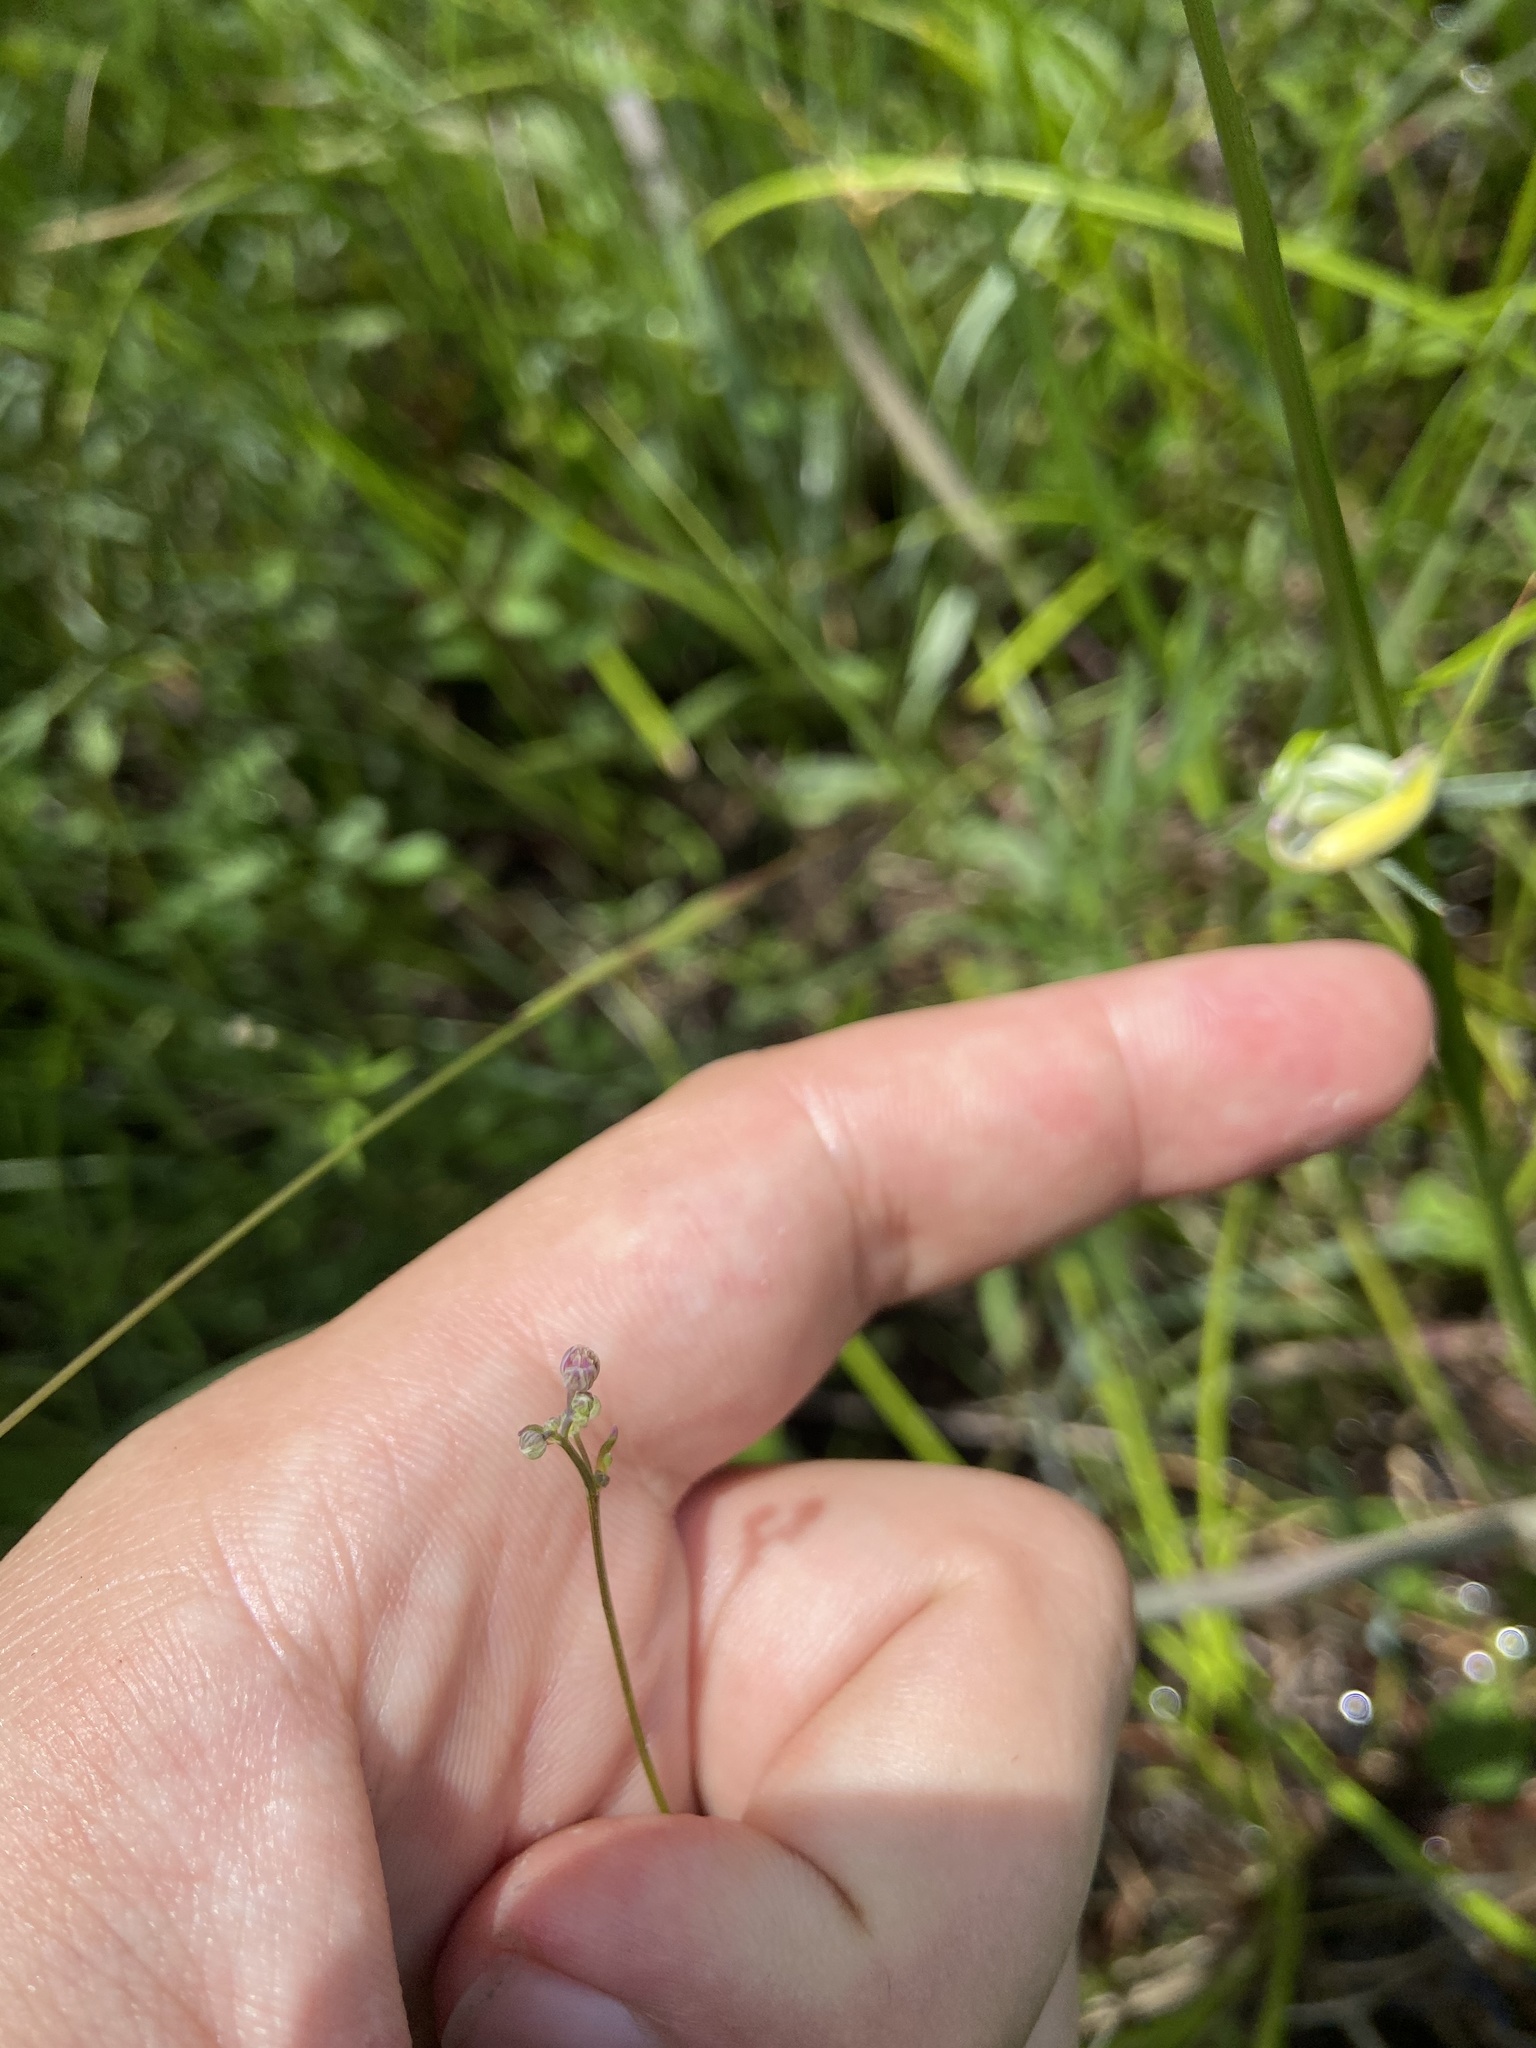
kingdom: Plantae
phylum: Tracheophyta
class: Magnoliopsida
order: Ranunculales
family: Ranunculaceae
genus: Thalictrum
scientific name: Thalictrum cooleyi
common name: Cooley's meadow-rue
